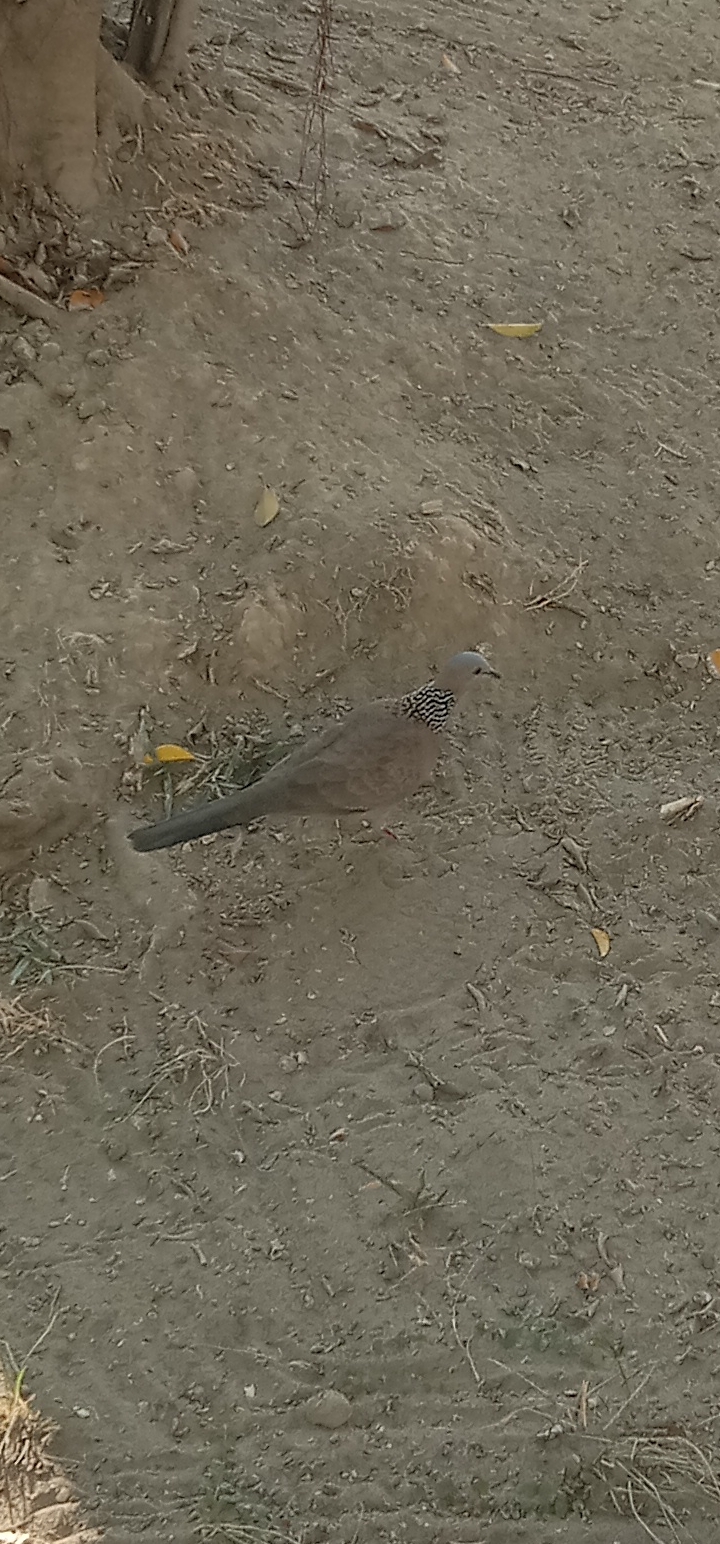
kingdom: Animalia
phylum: Chordata
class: Aves
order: Columbiformes
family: Columbidae
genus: Spilopelia
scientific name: Spilopelia chinensis
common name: Spotted dove
